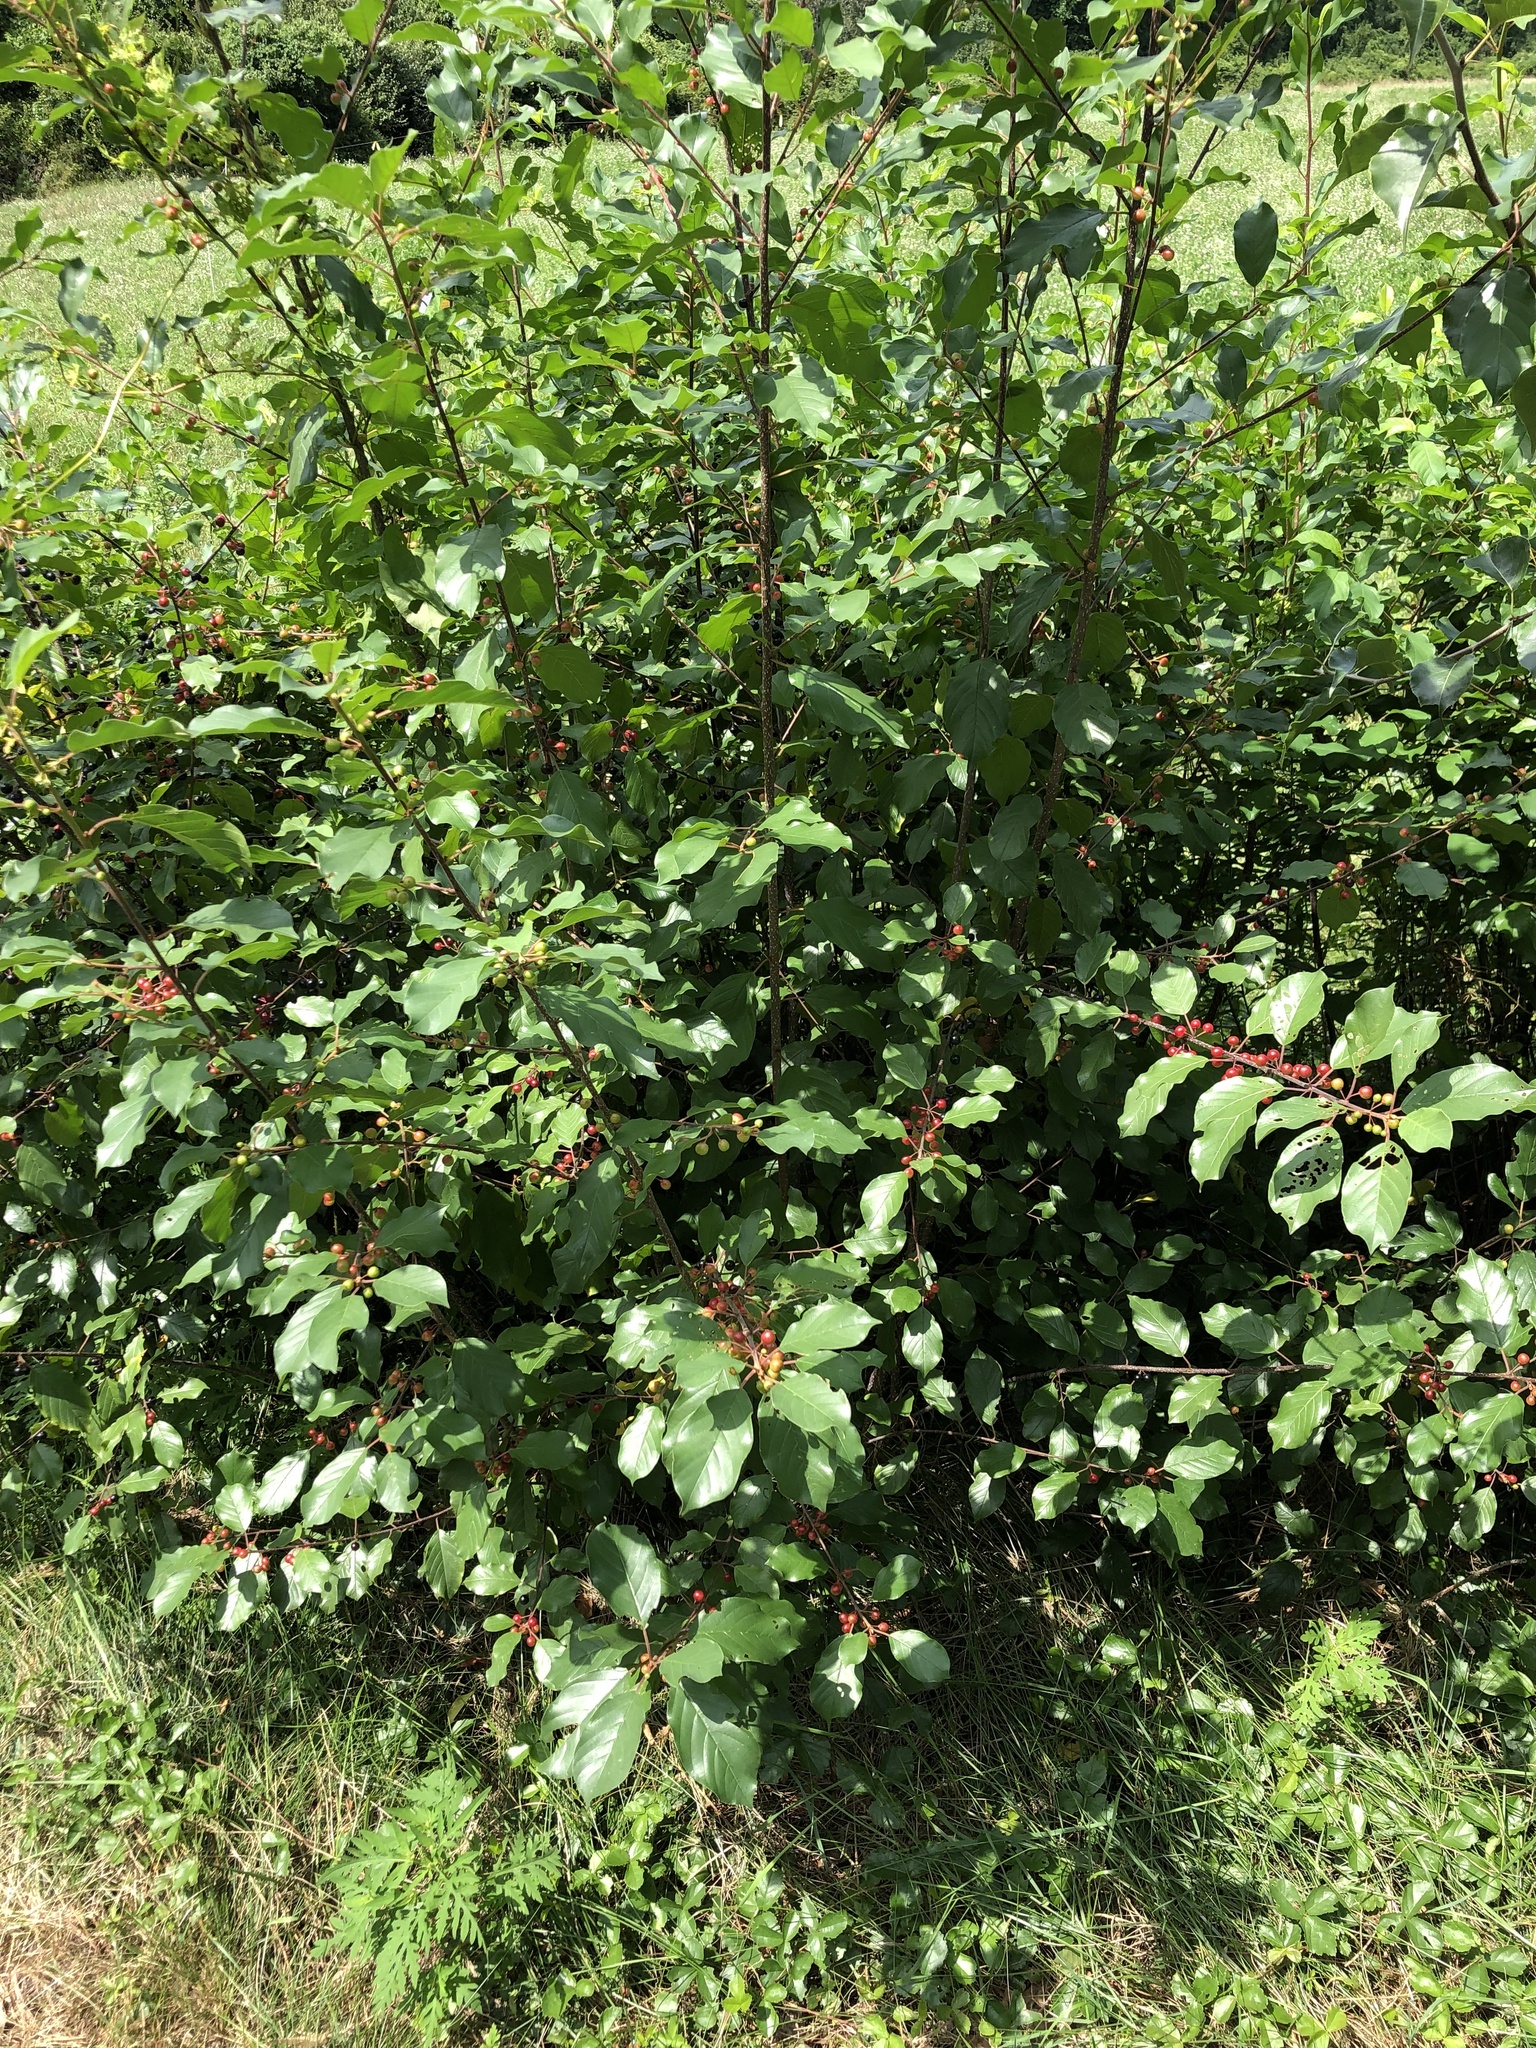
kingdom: Plantae
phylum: Tracheophyta
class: Magnoliopsida
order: Rosales
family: Rhamnaceae
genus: Frangula
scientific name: Frangula alnus
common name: Alder buckthorn
